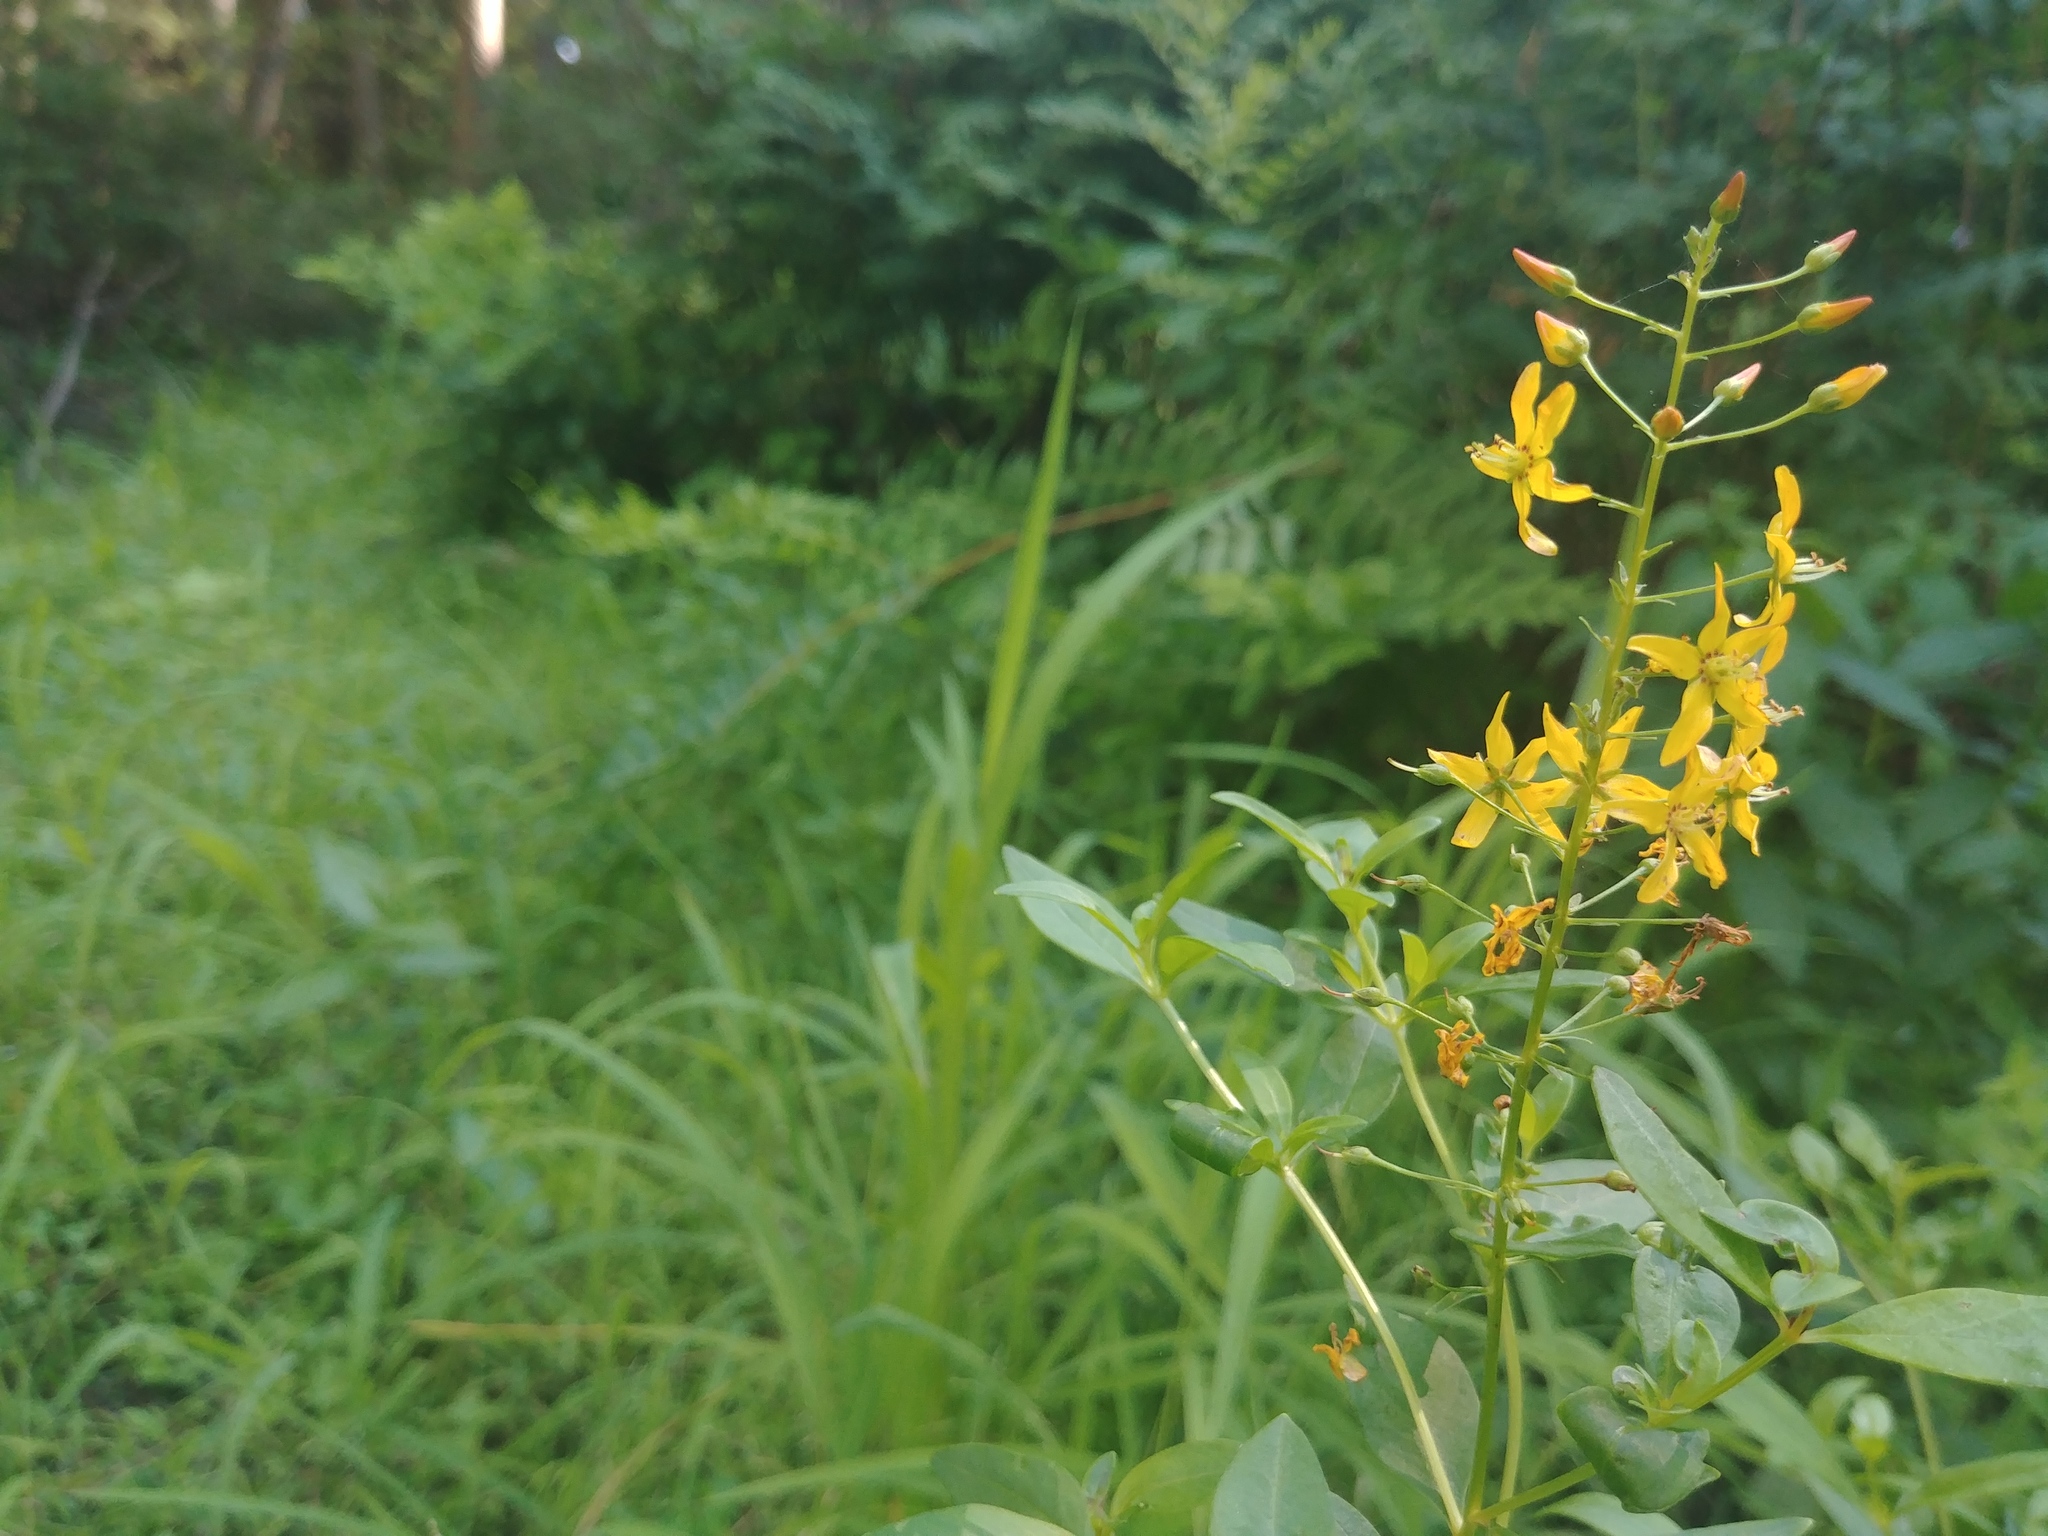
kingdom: Plantae
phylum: Tracheophyta
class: Magnoliopsida
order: Ericales
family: Primulaceae
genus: Lysimachia
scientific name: Lysimachia terrestris
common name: Lake loosestrife
